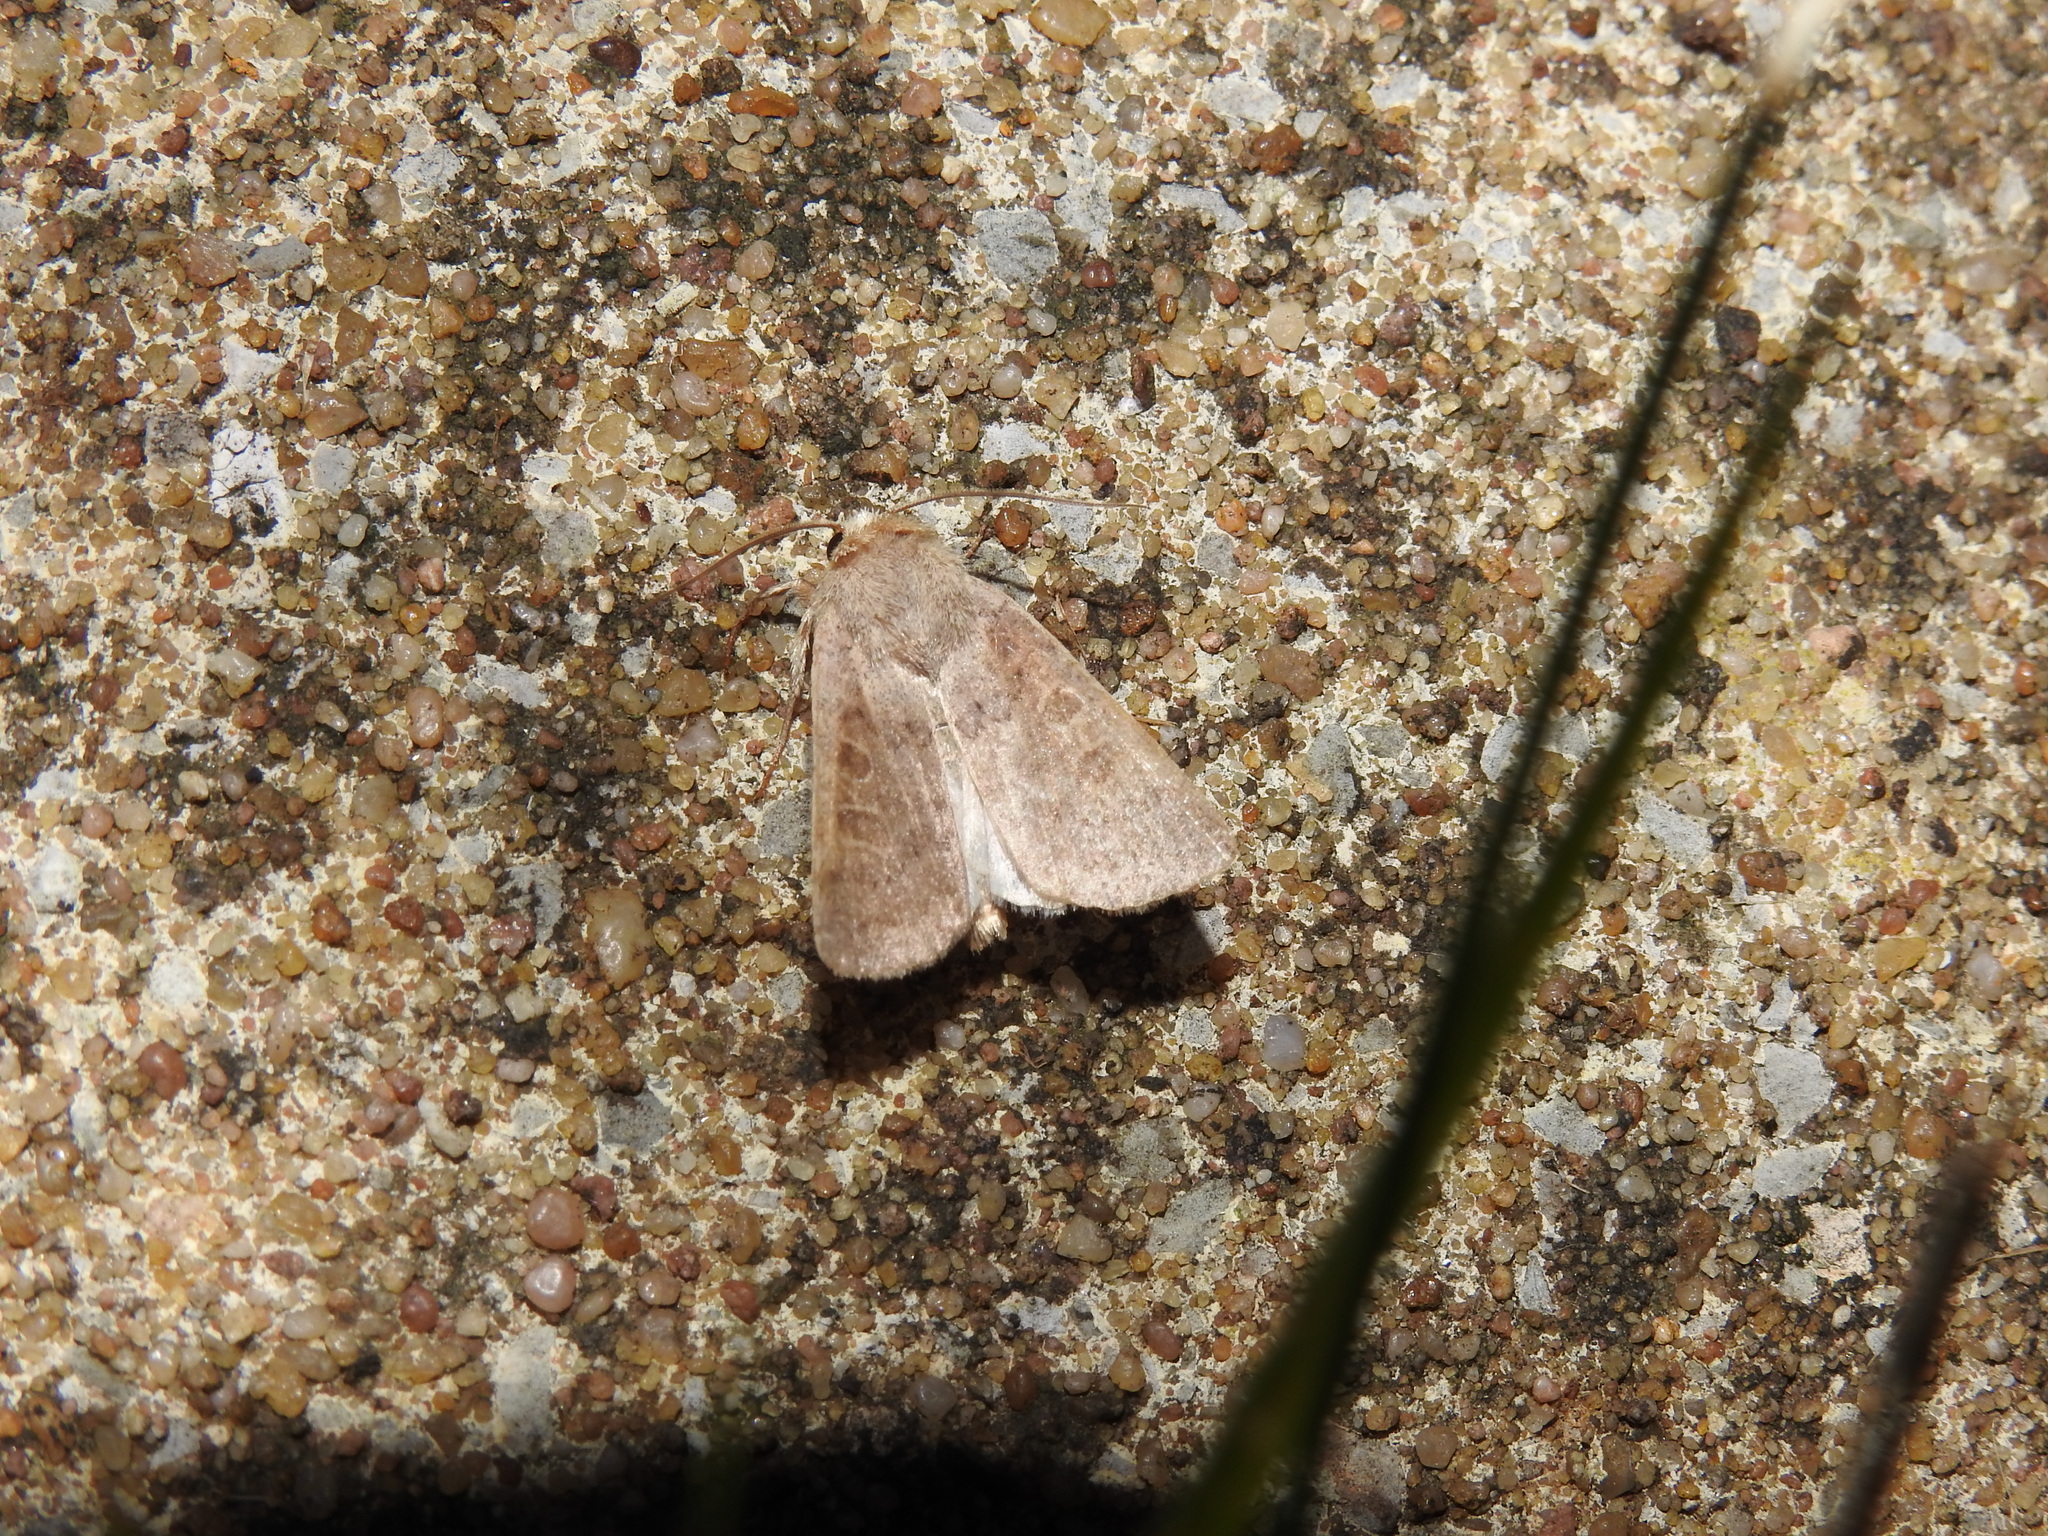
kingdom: Animalia
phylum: Arthropoda
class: Insecta
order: Lepidoptera
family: Noctuidae
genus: Hoplodrina
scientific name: Hoplodrina ambigua
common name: Vine's rustic
